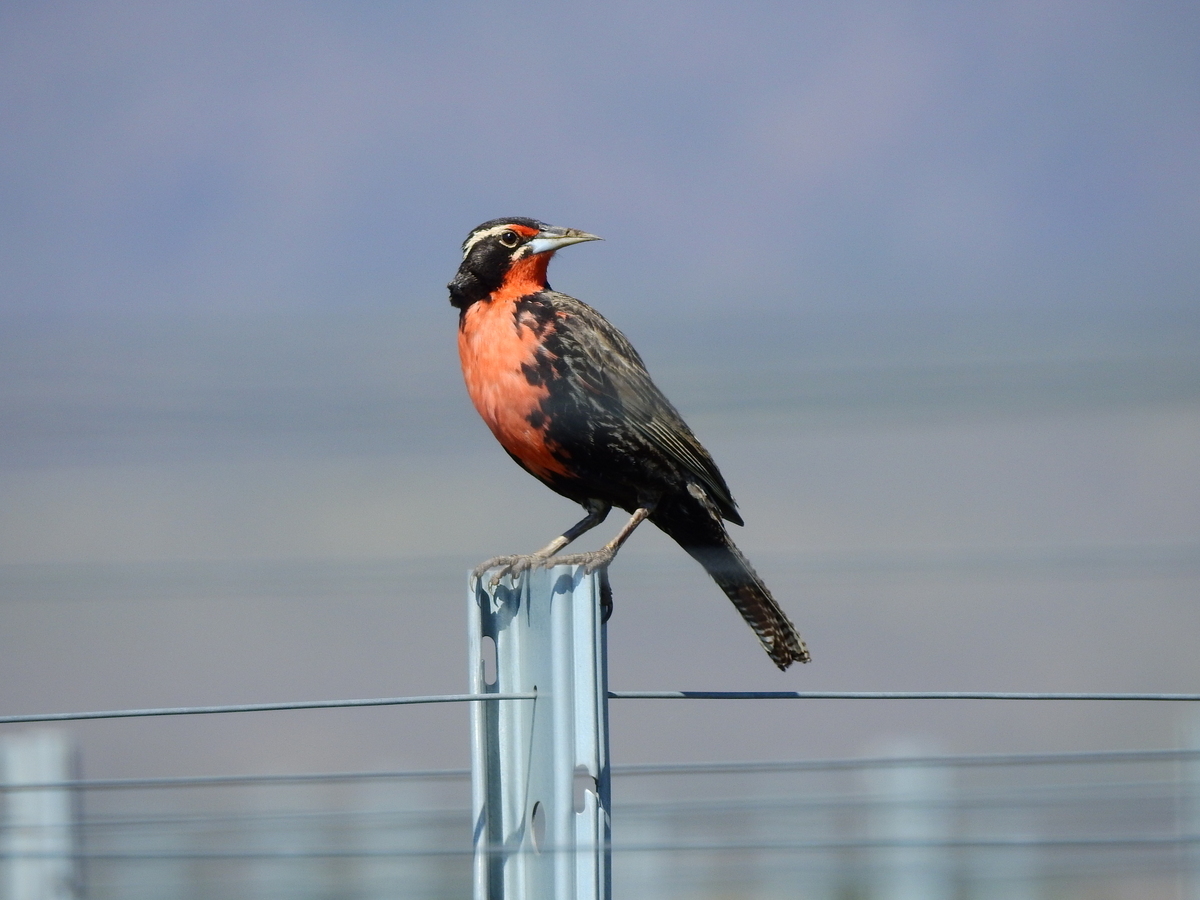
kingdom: Animalia
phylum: Chordata
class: Aves
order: Passeriformes
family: Icteridae
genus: Sturnella
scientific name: Sturnella loyca
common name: Long-tailed meadowlark
